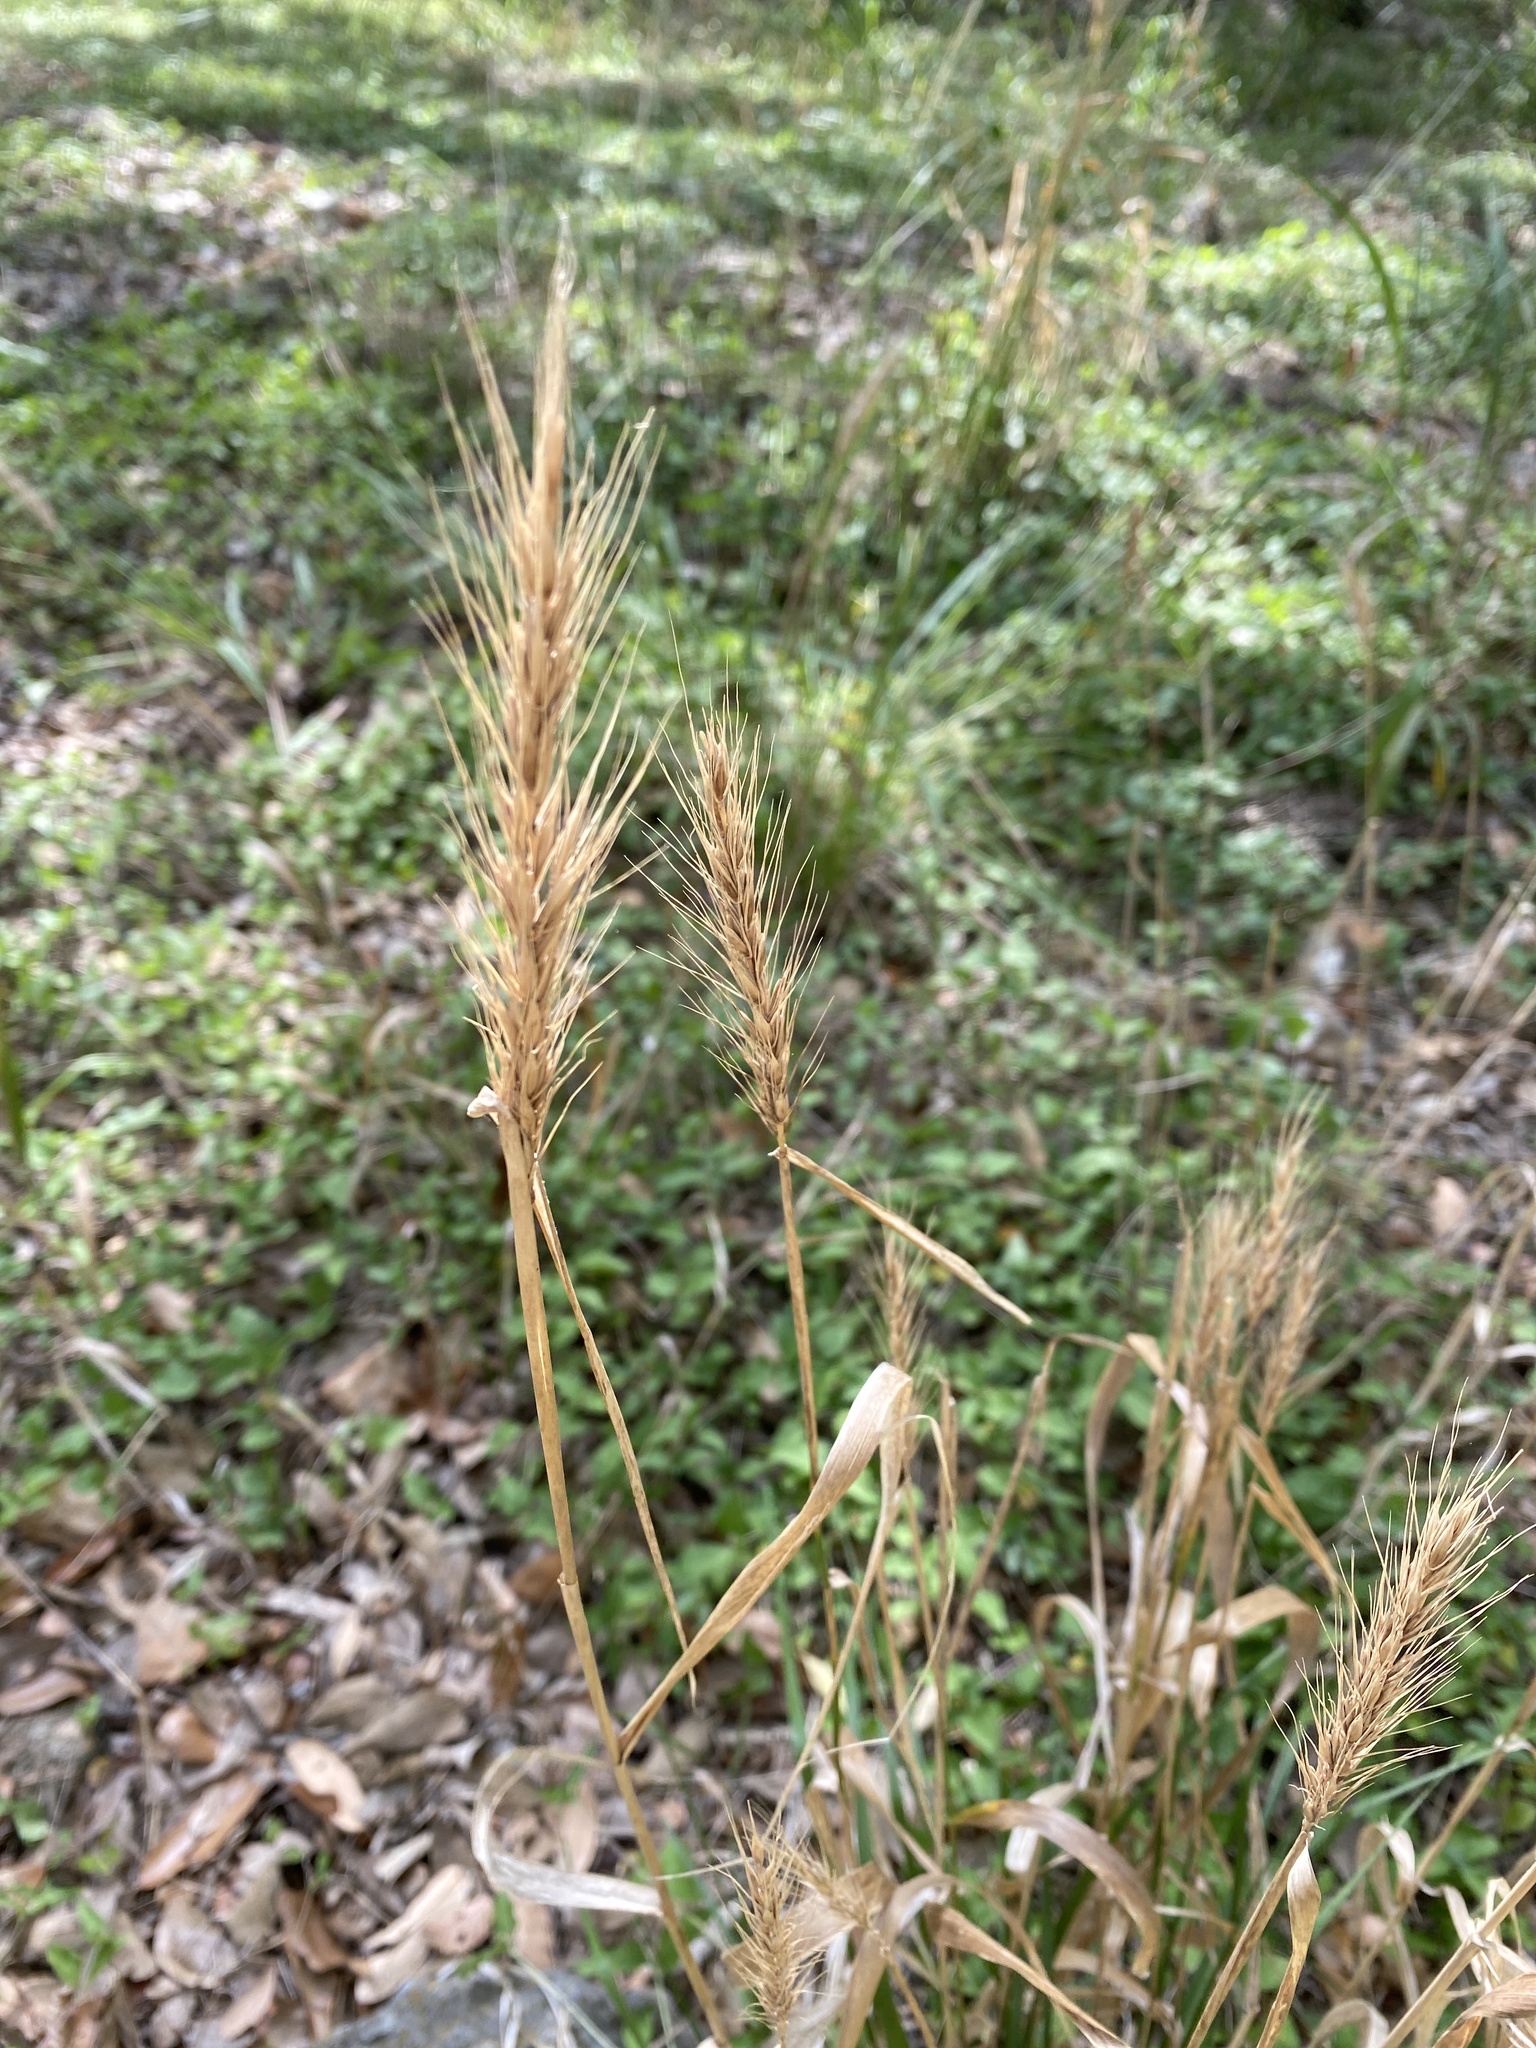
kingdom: Plantae
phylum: Tracheophyta
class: Liliopsida
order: Poales
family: Poaceae
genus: Elymus
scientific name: Elymus virginicus
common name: Common eastern wildrye
